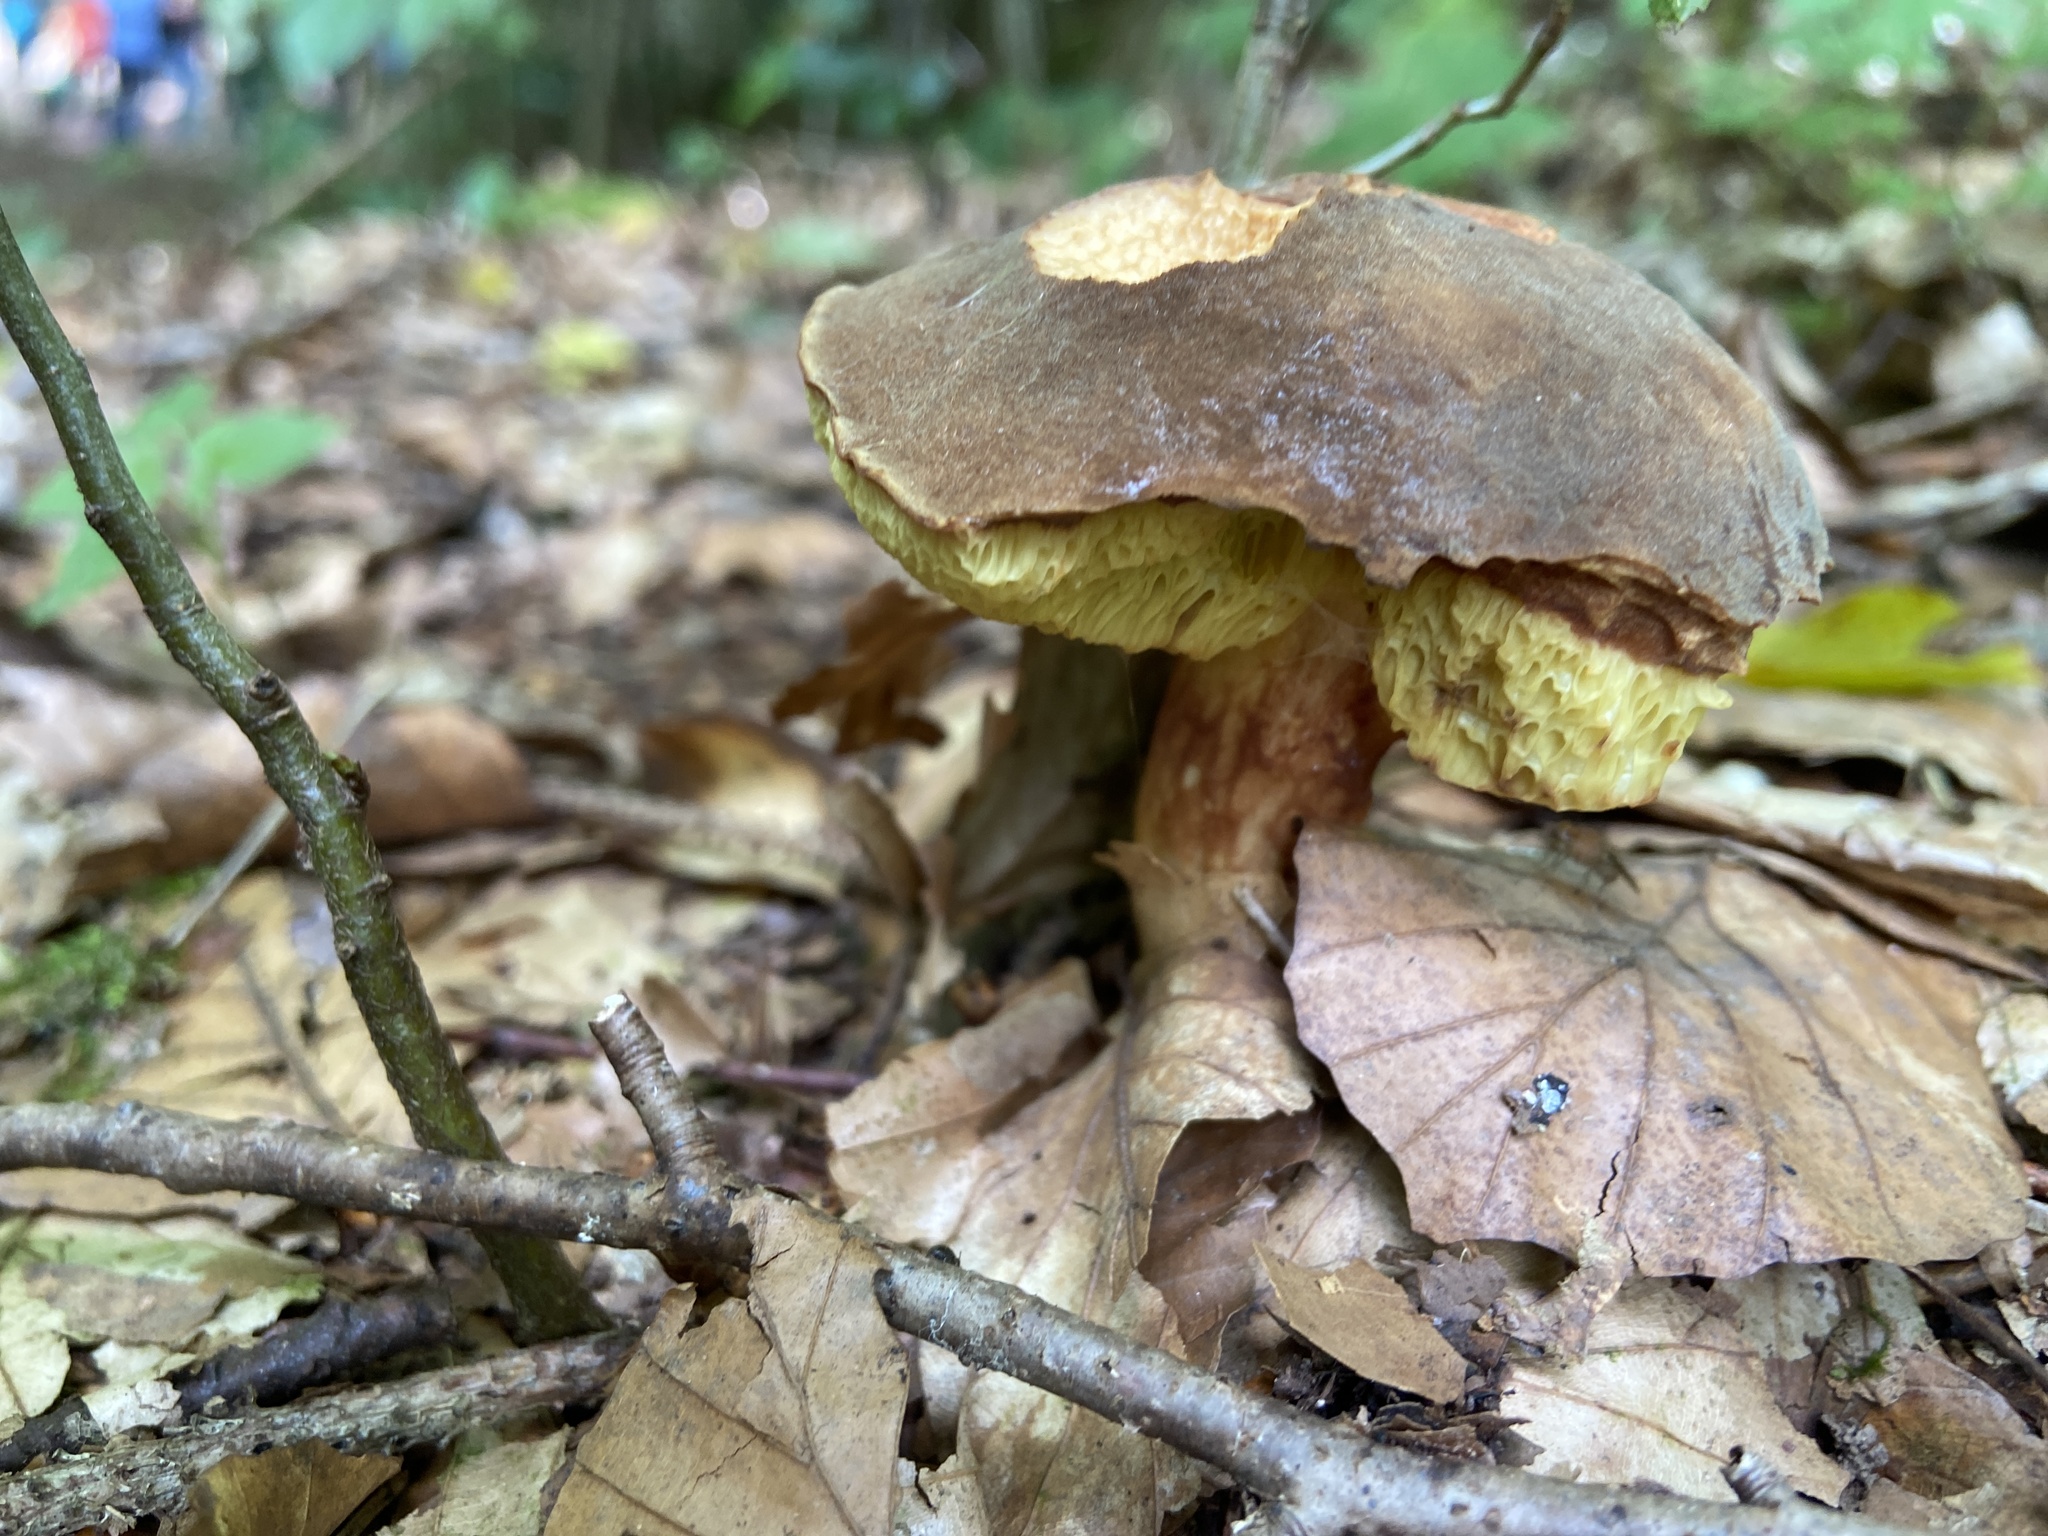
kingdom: Fungi
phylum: Basidiomycota
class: Agaricomycetes
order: Boletales
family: Boletaceae
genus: Xerocomus
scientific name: Xerocomus subtomentosus
